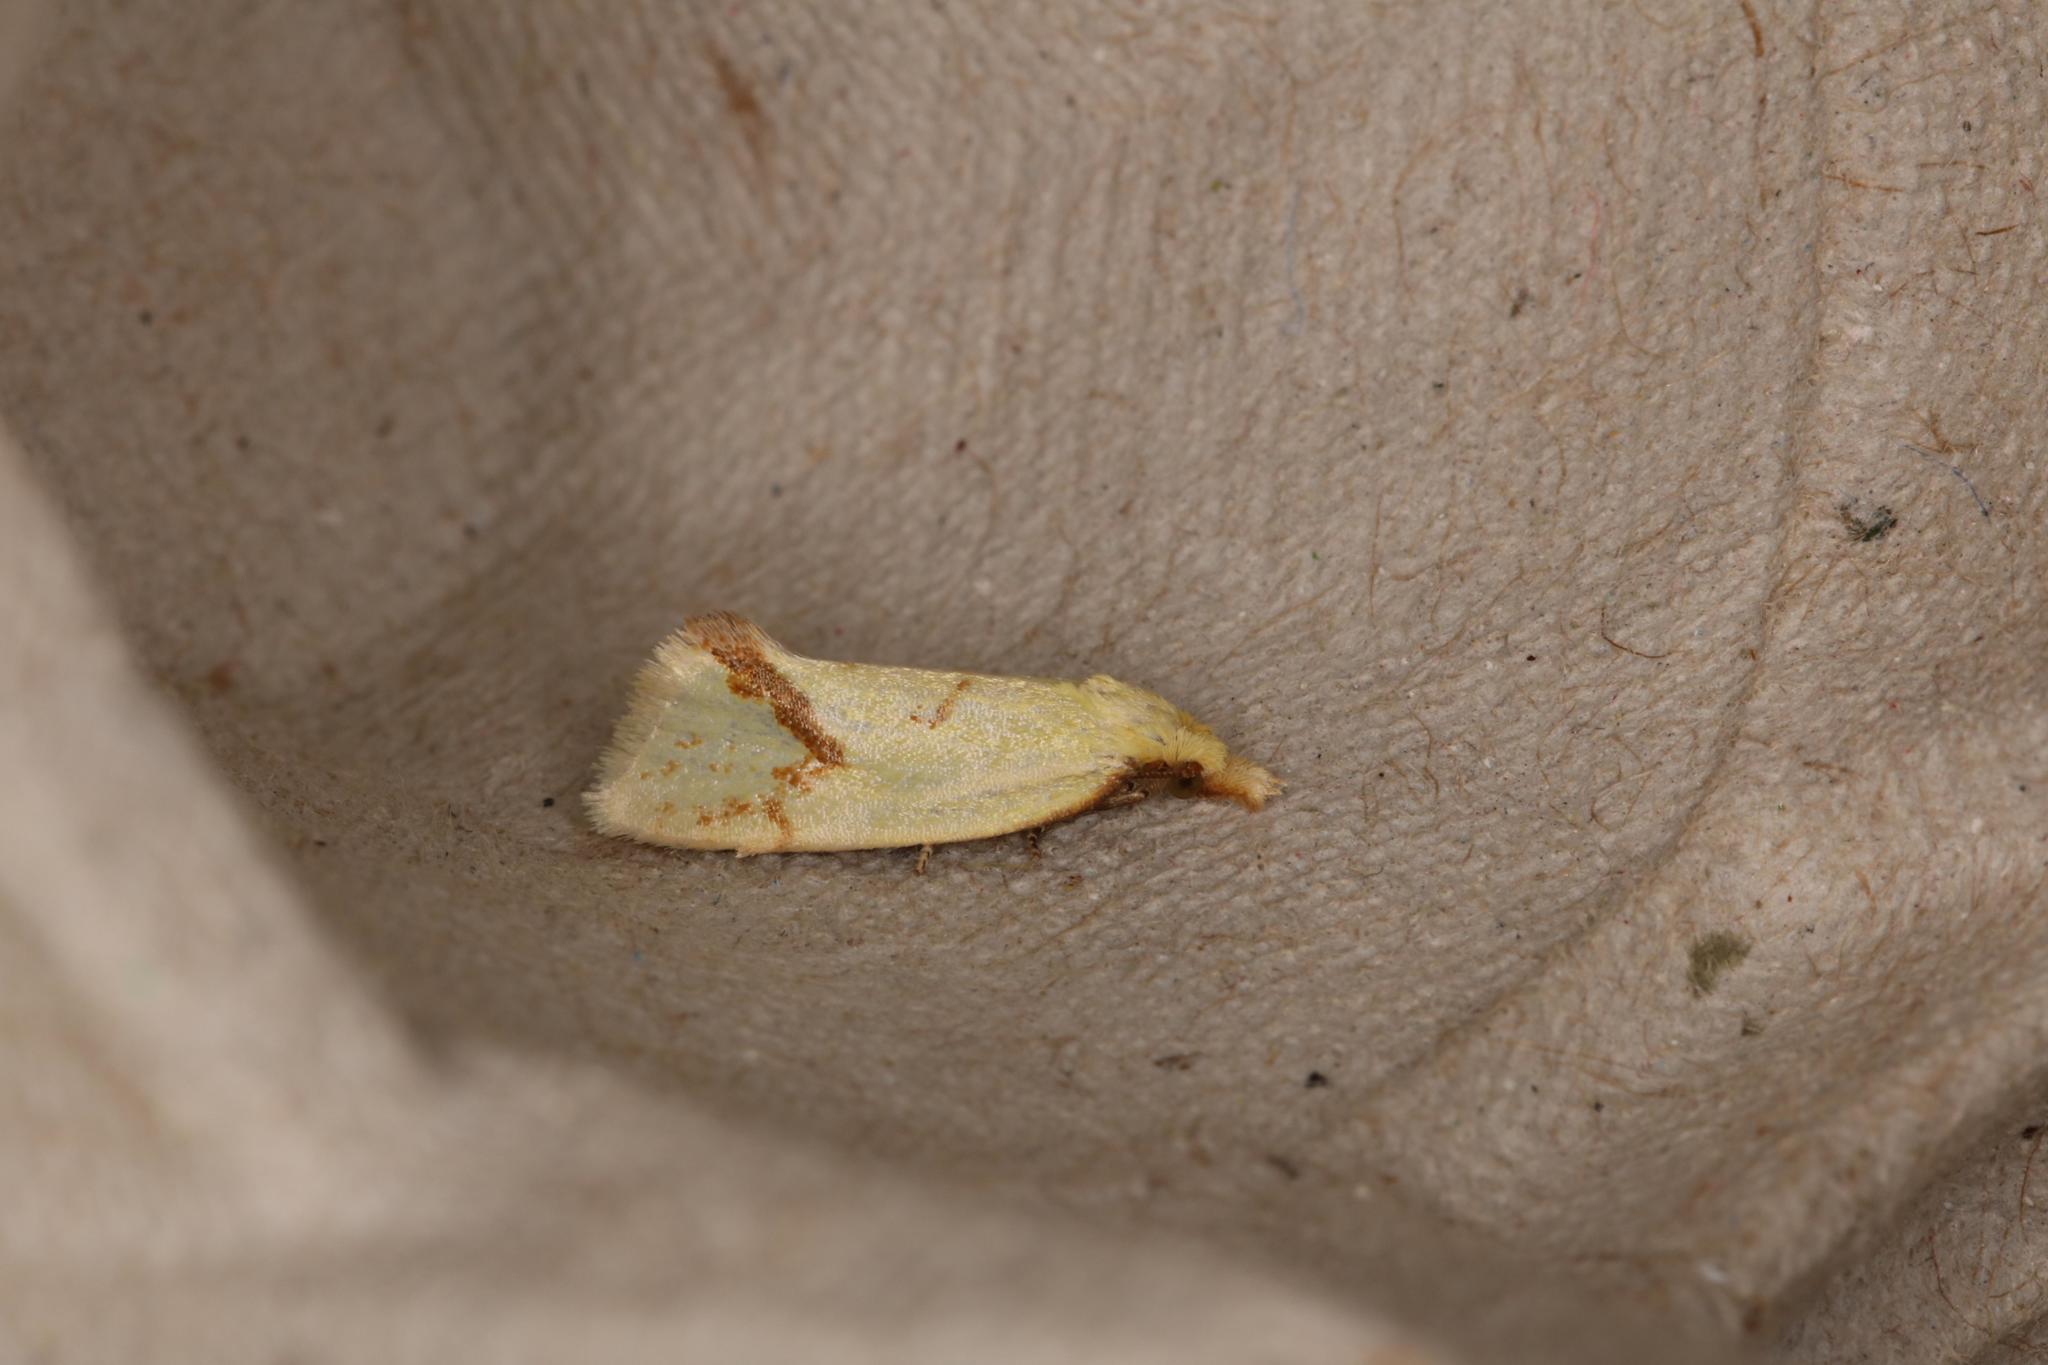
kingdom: Animalia
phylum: Arthropoda
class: Insecta
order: Lepidoptera
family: Tortricidae
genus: Agapeta
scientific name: Agapeta hamana
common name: Common yellow conch
